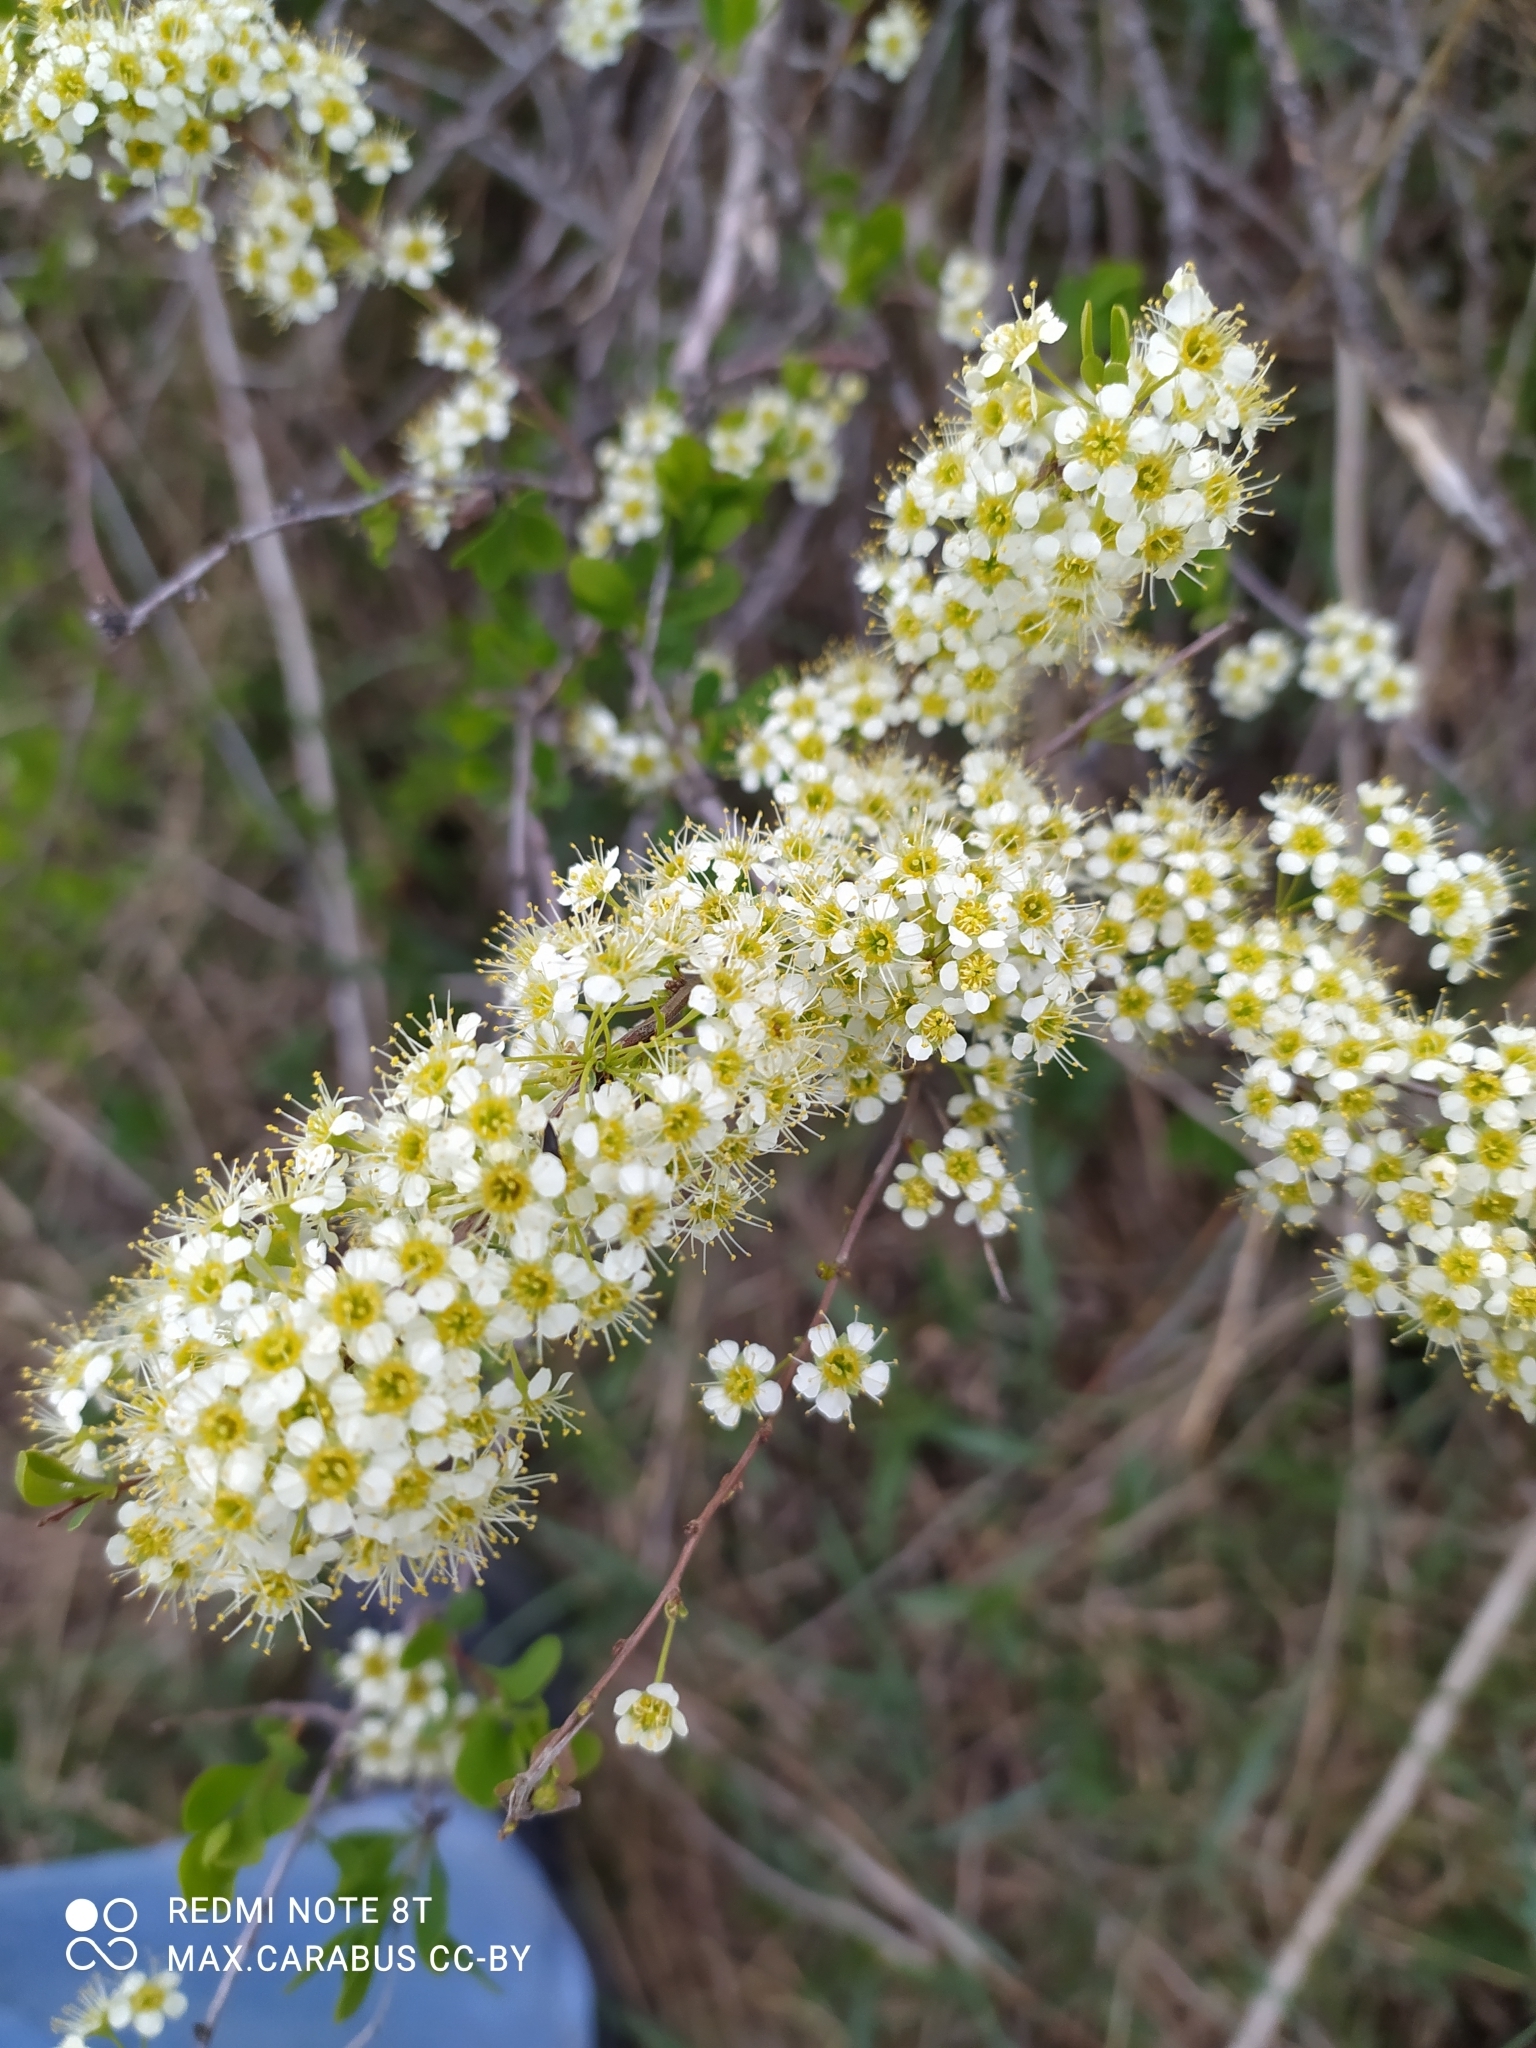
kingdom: Plantae
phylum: Tracheophyta
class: Magnoliopsida
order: Rosales
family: Rosaceae
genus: Spiraea
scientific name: Spiraea hypericifolia
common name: Iberian spirea
